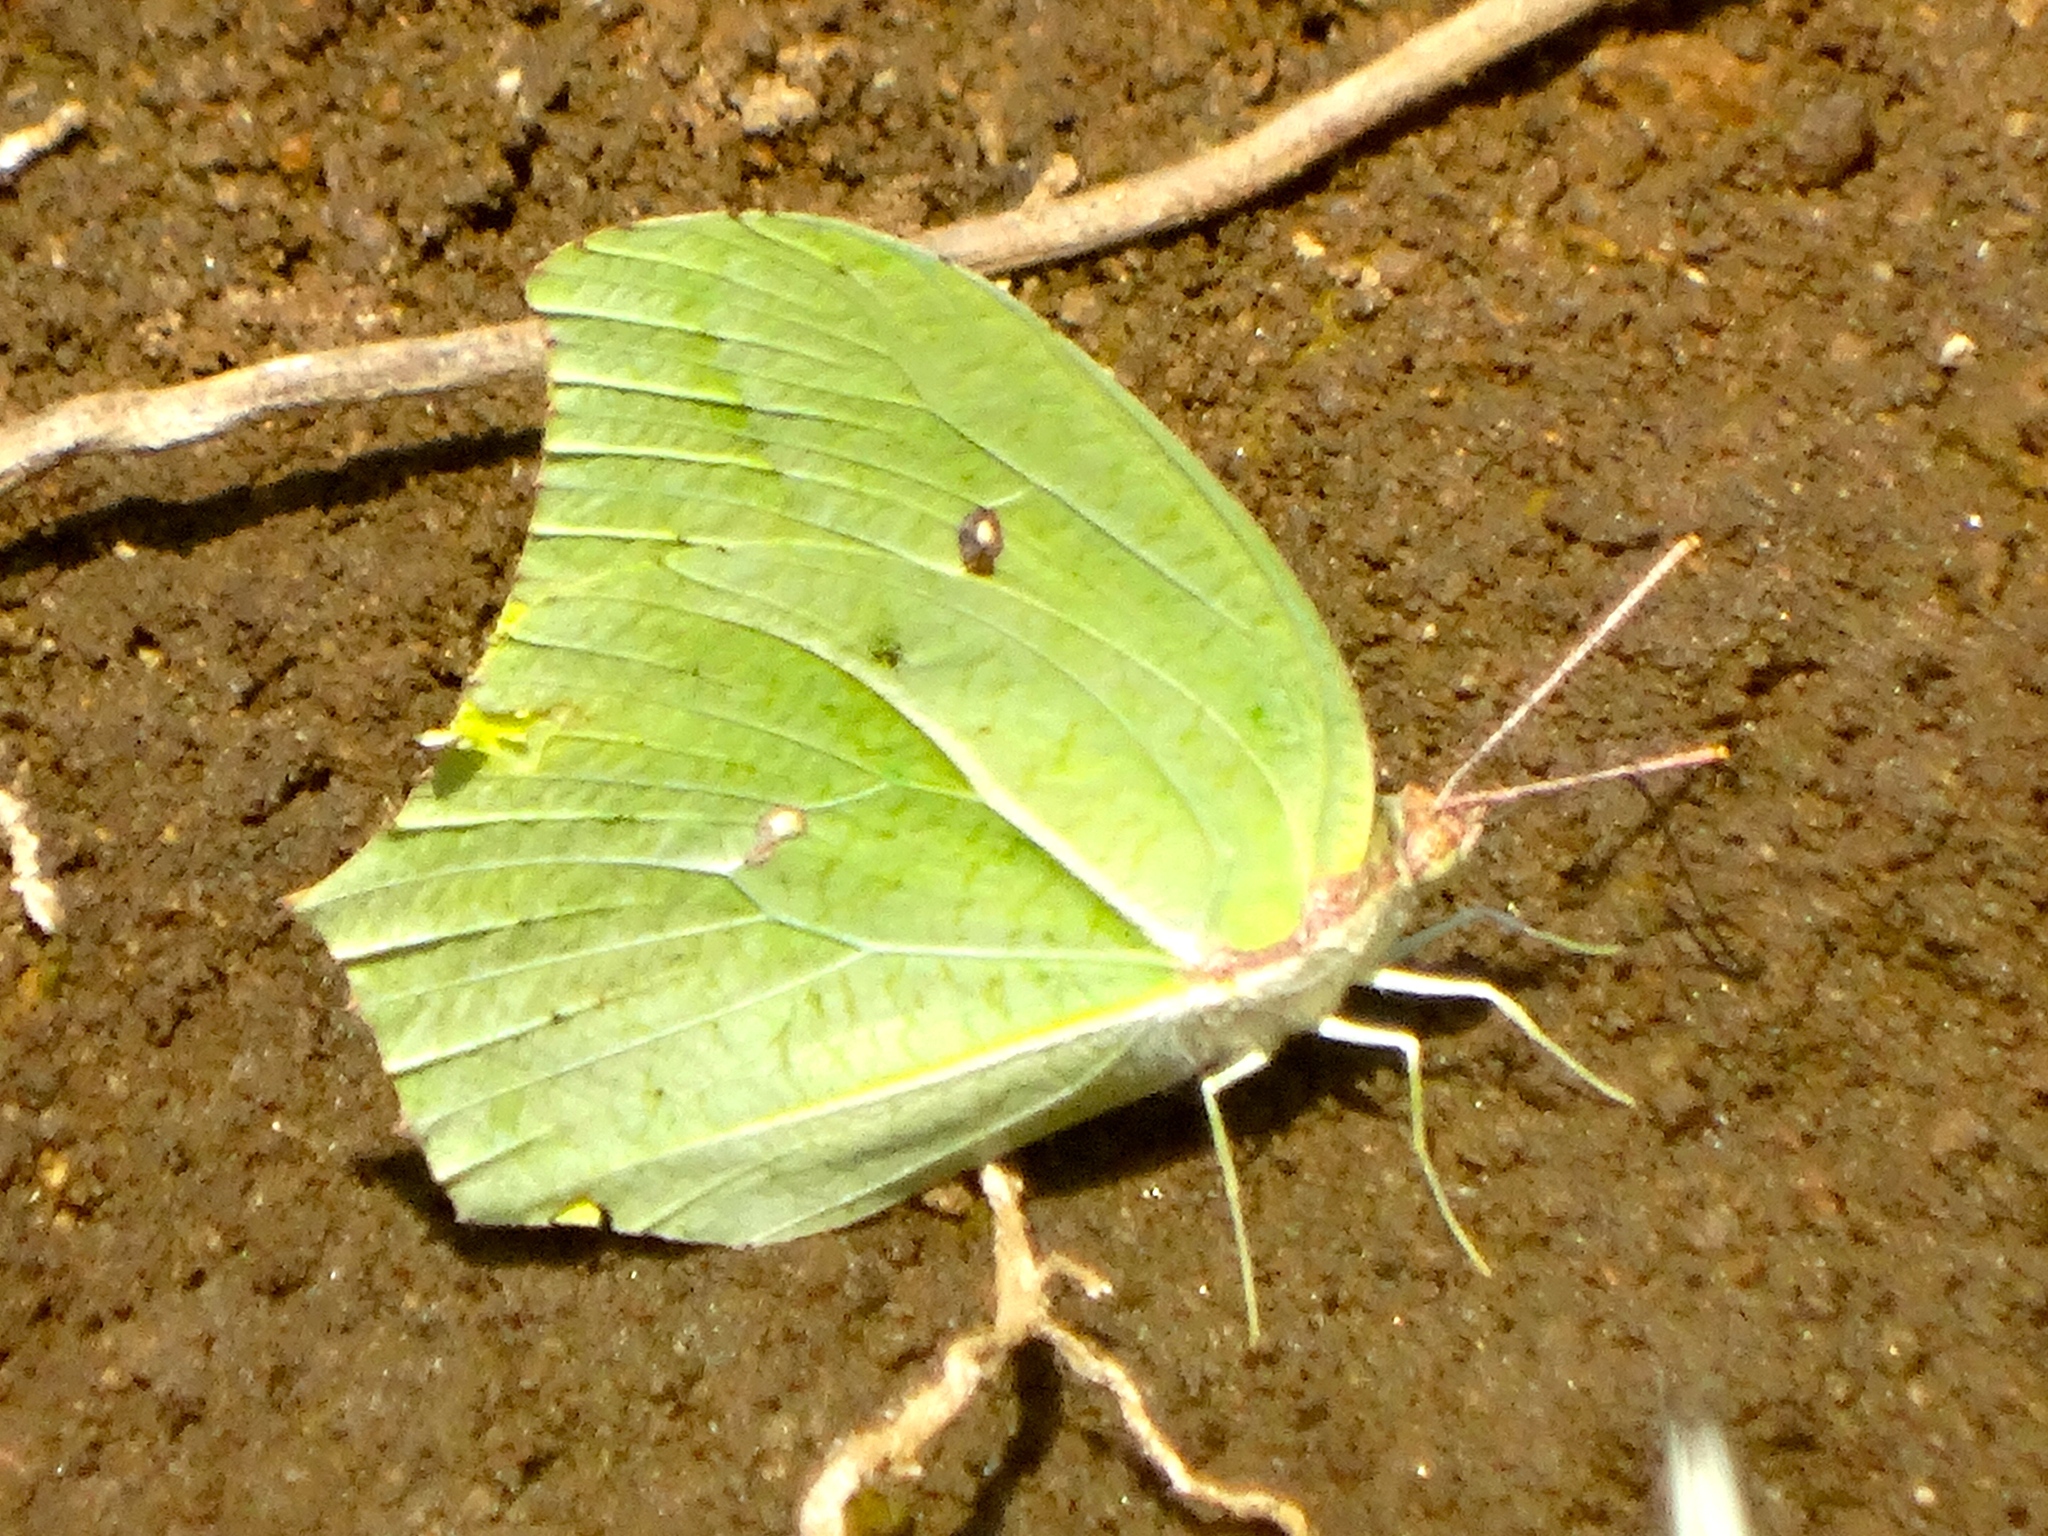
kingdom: Animalia
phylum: Arthropoda
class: Insecta
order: Lepidoptera
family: Pieridae
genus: Anteos
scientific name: Anteos maerula
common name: Angled sulphur
